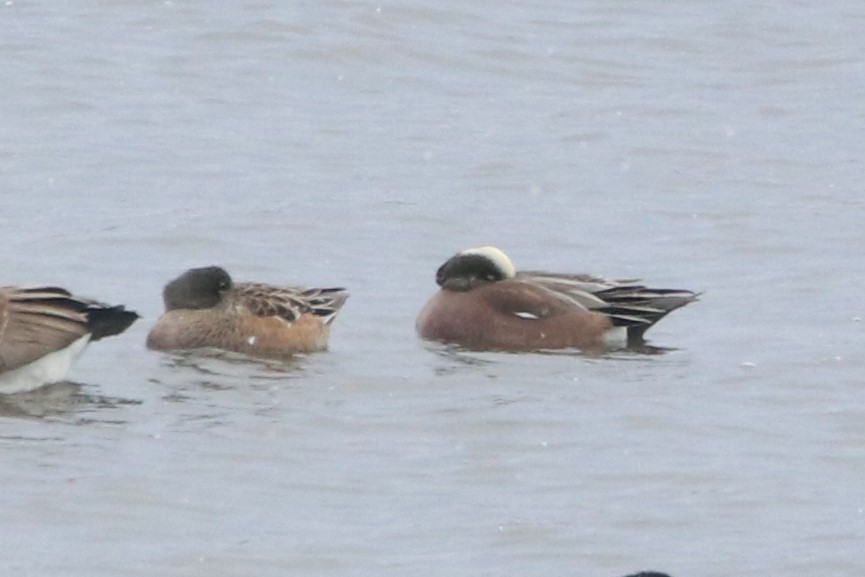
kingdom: Animalia
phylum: Chordata
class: Aves
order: Anseriformes
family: Anatidae
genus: Mareca
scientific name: Mareca americana
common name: American wigeon
